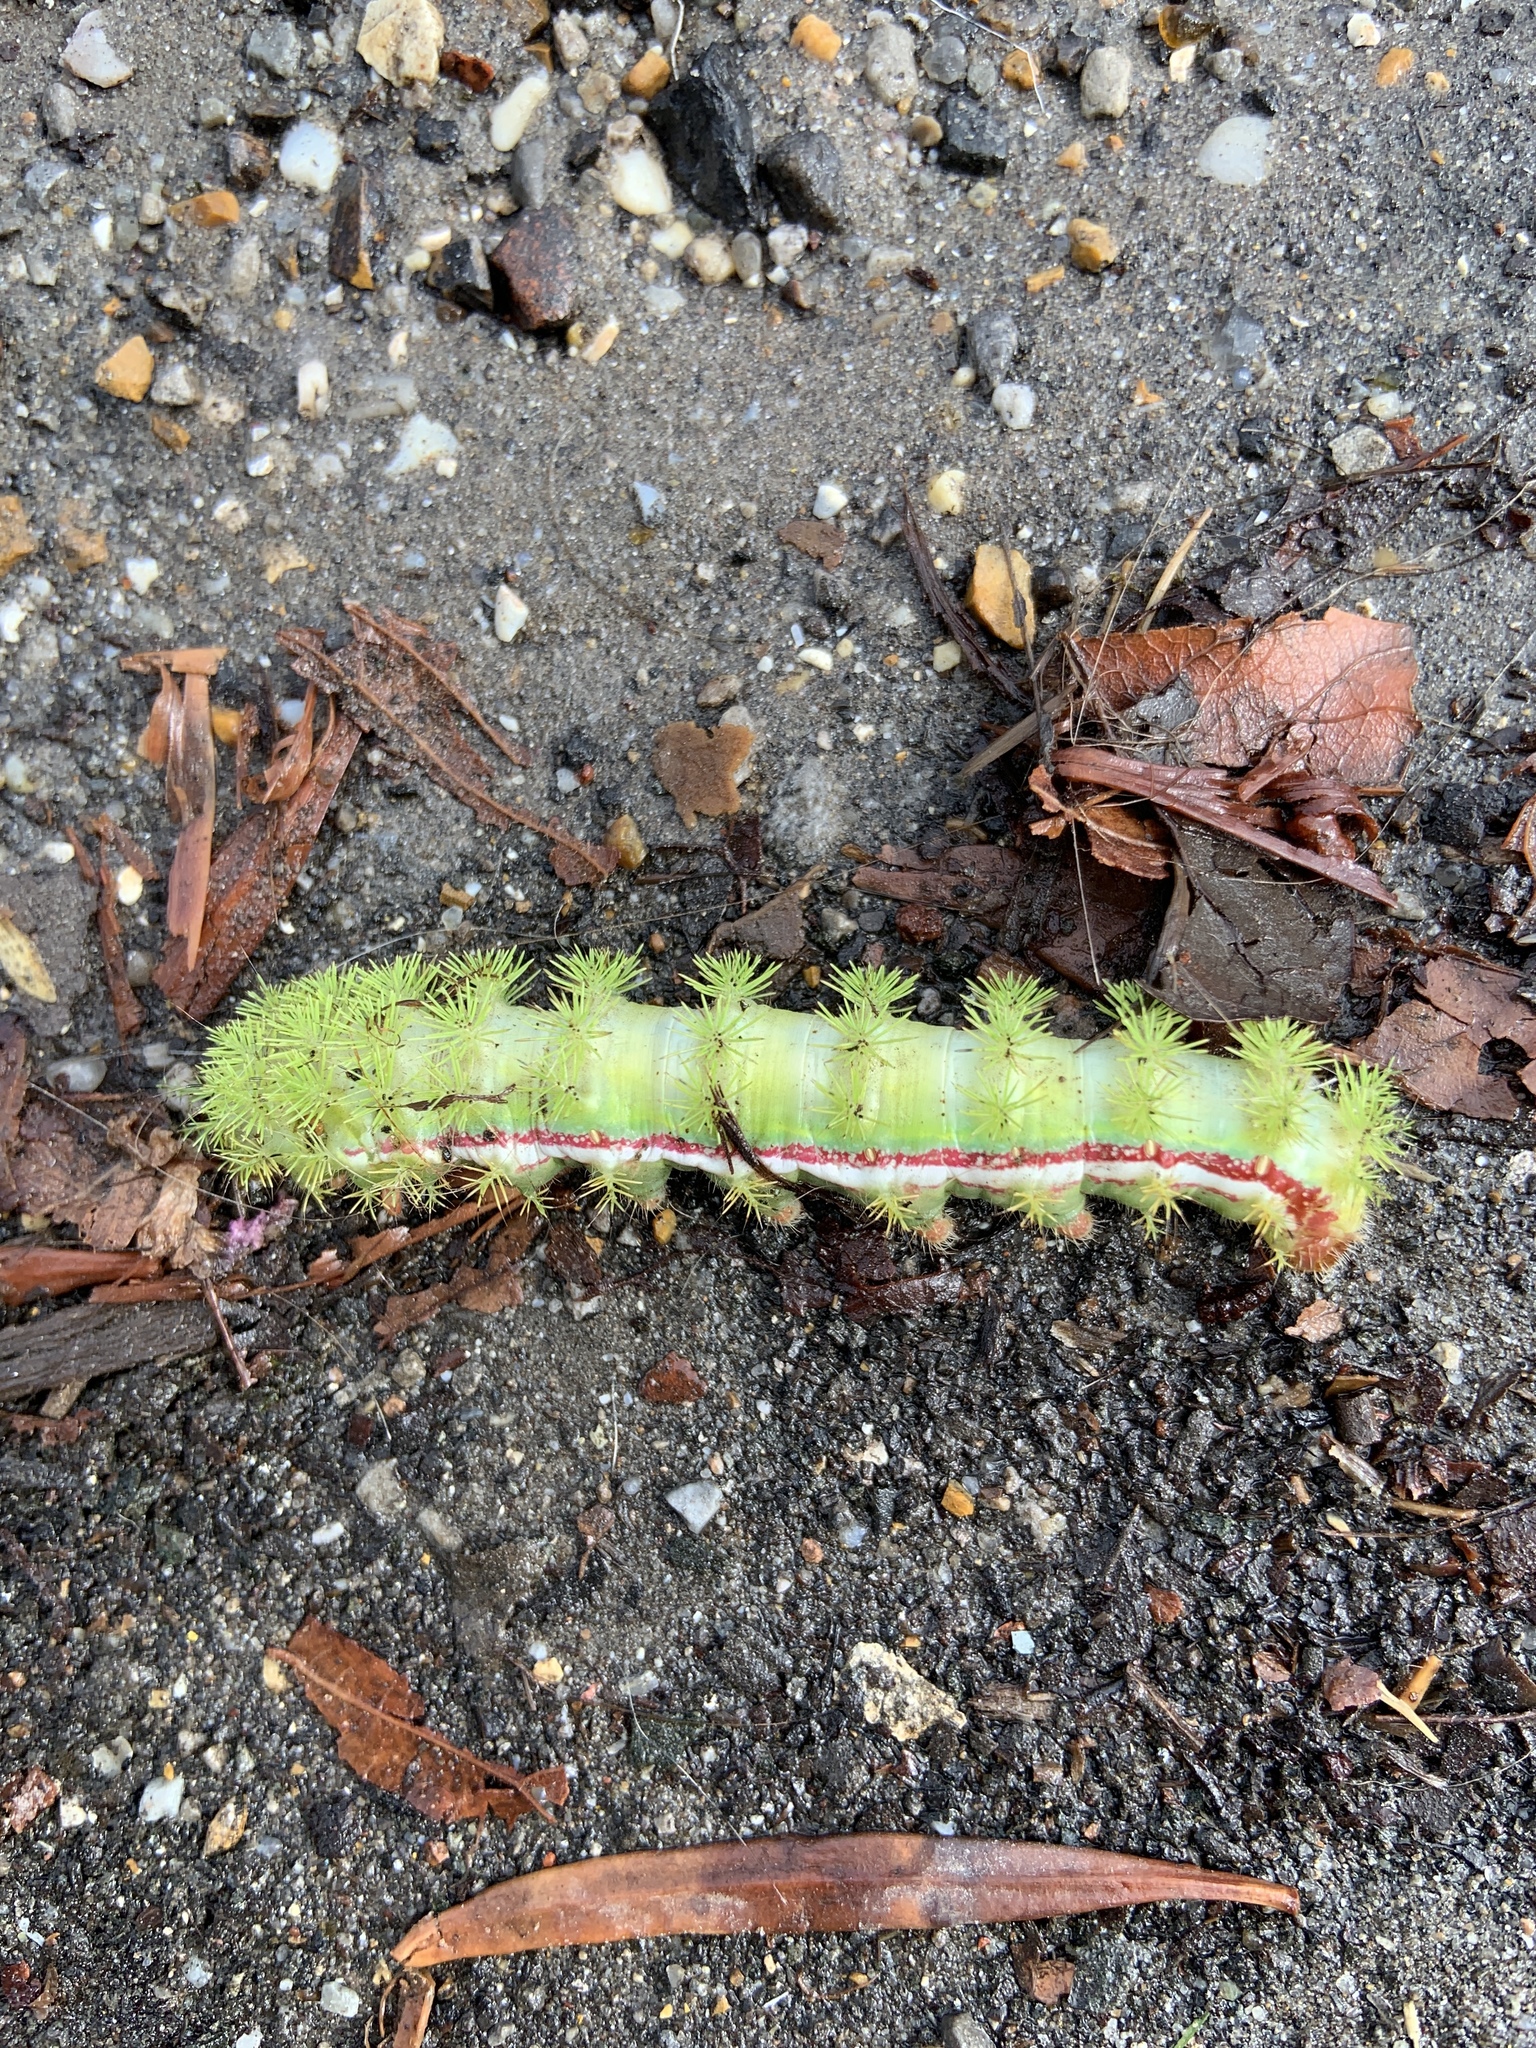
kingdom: Animalia
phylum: Arthropoda
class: Insecta
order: Lepidoptera
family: Saturniidae
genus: Automeris
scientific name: Automeris io
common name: Io moth
